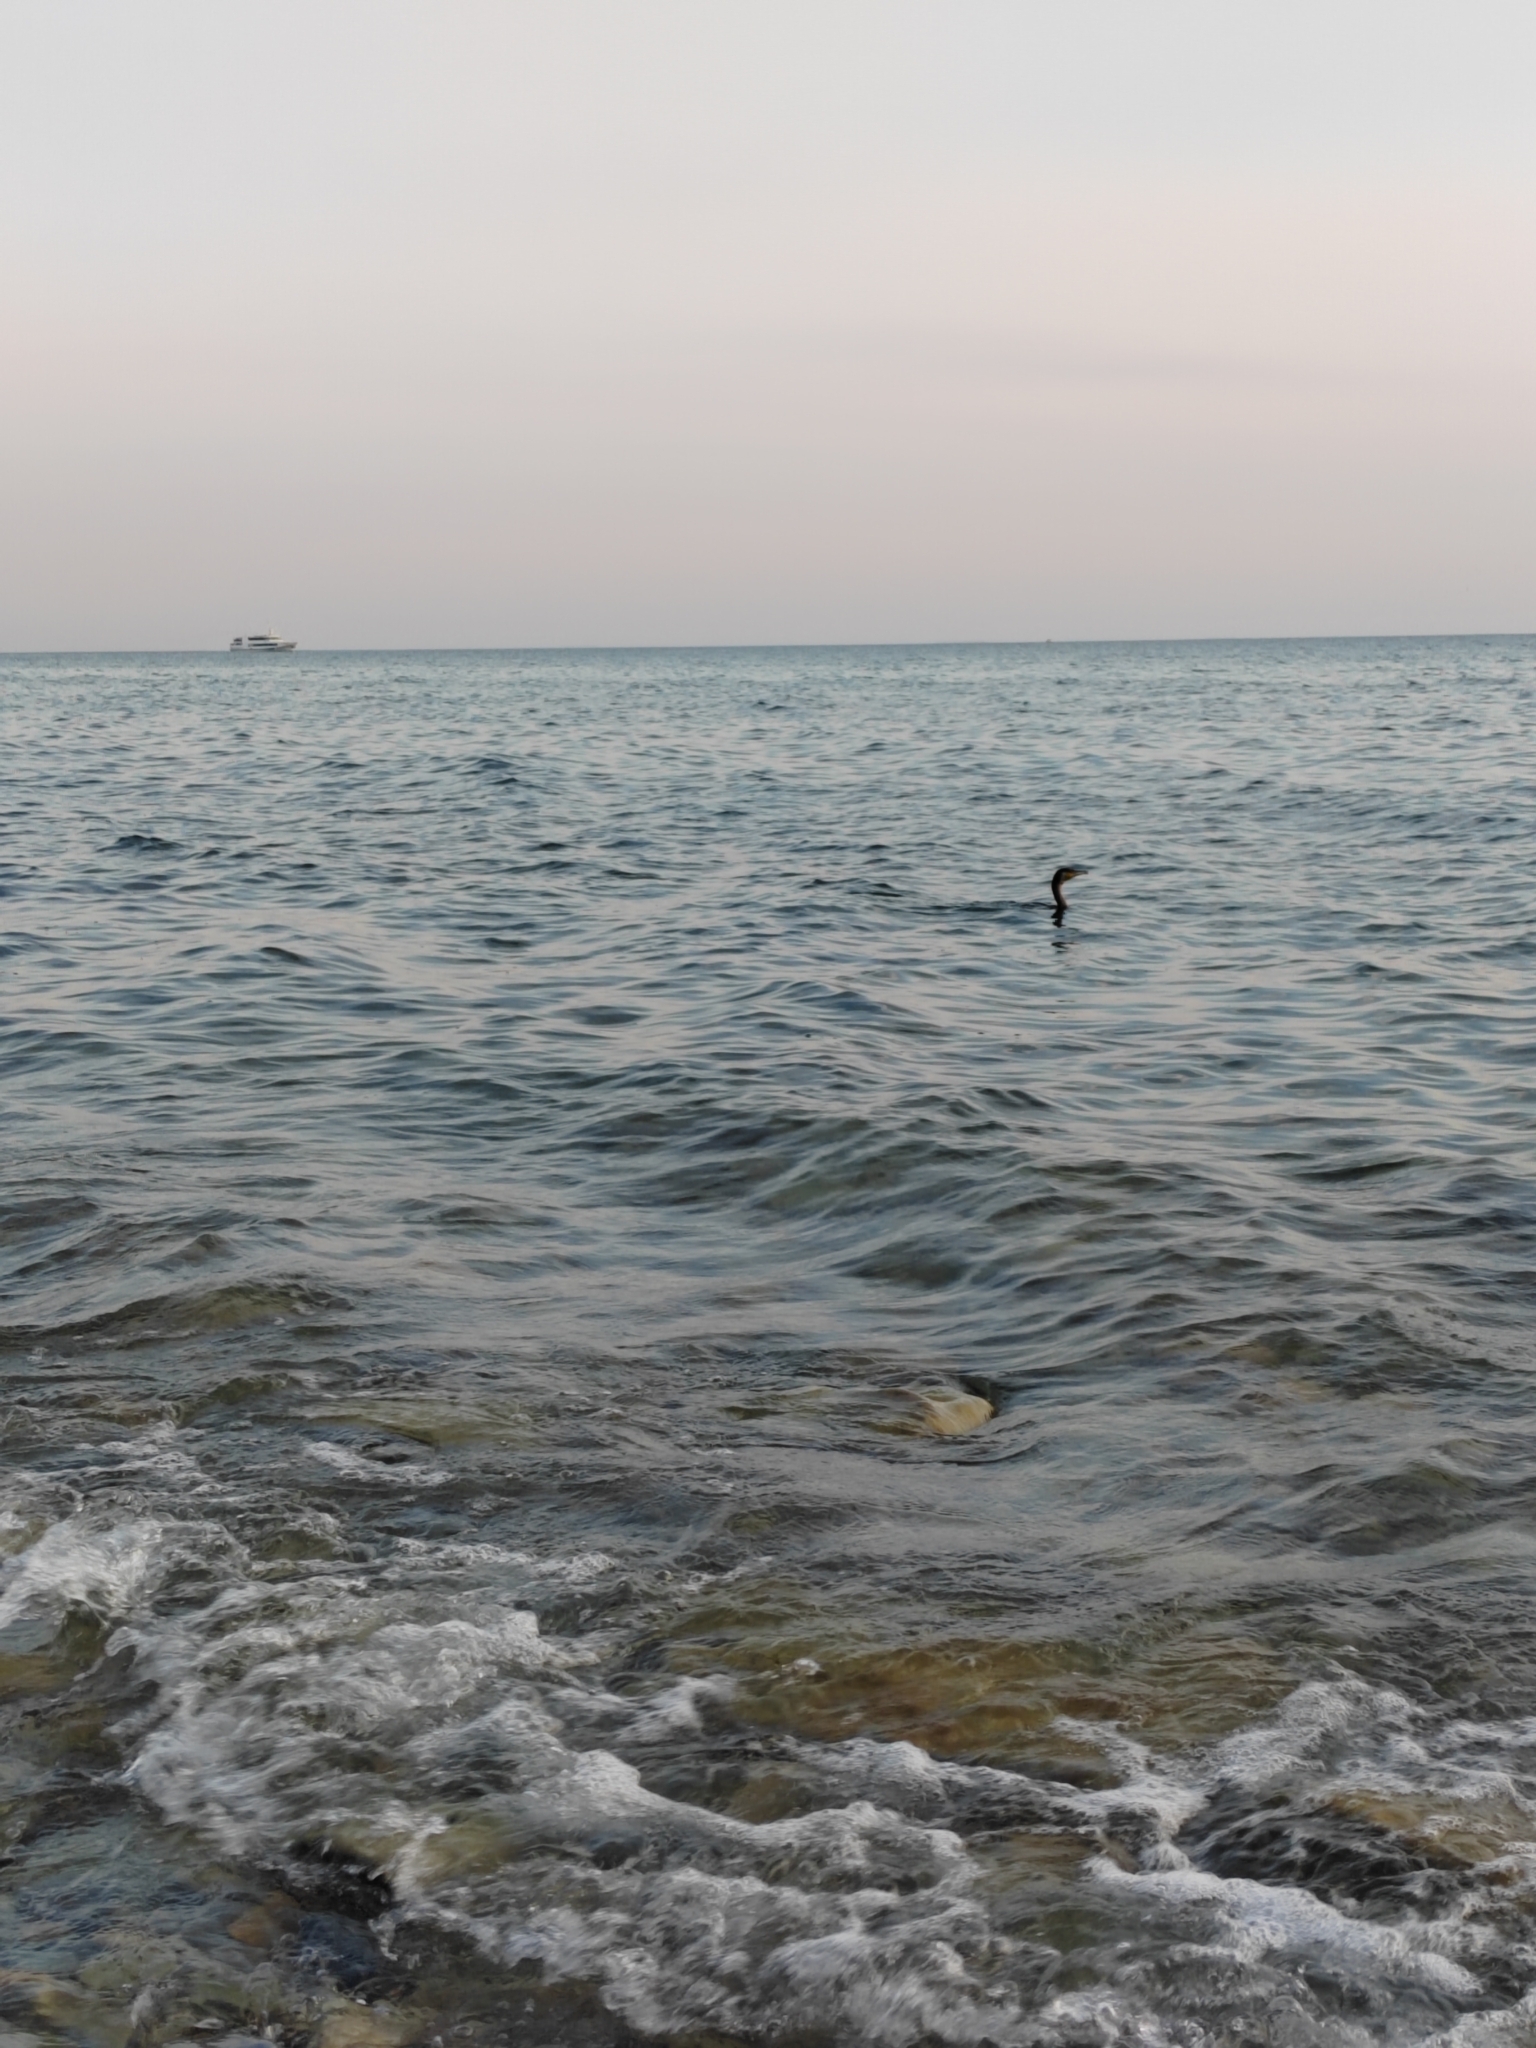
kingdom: Animalia
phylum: Chordata
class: Aves
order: Suliformes
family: Phalacrocoracidae
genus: Phalacrocorax
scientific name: Phalacrocorax carbo
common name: Great cormorant
